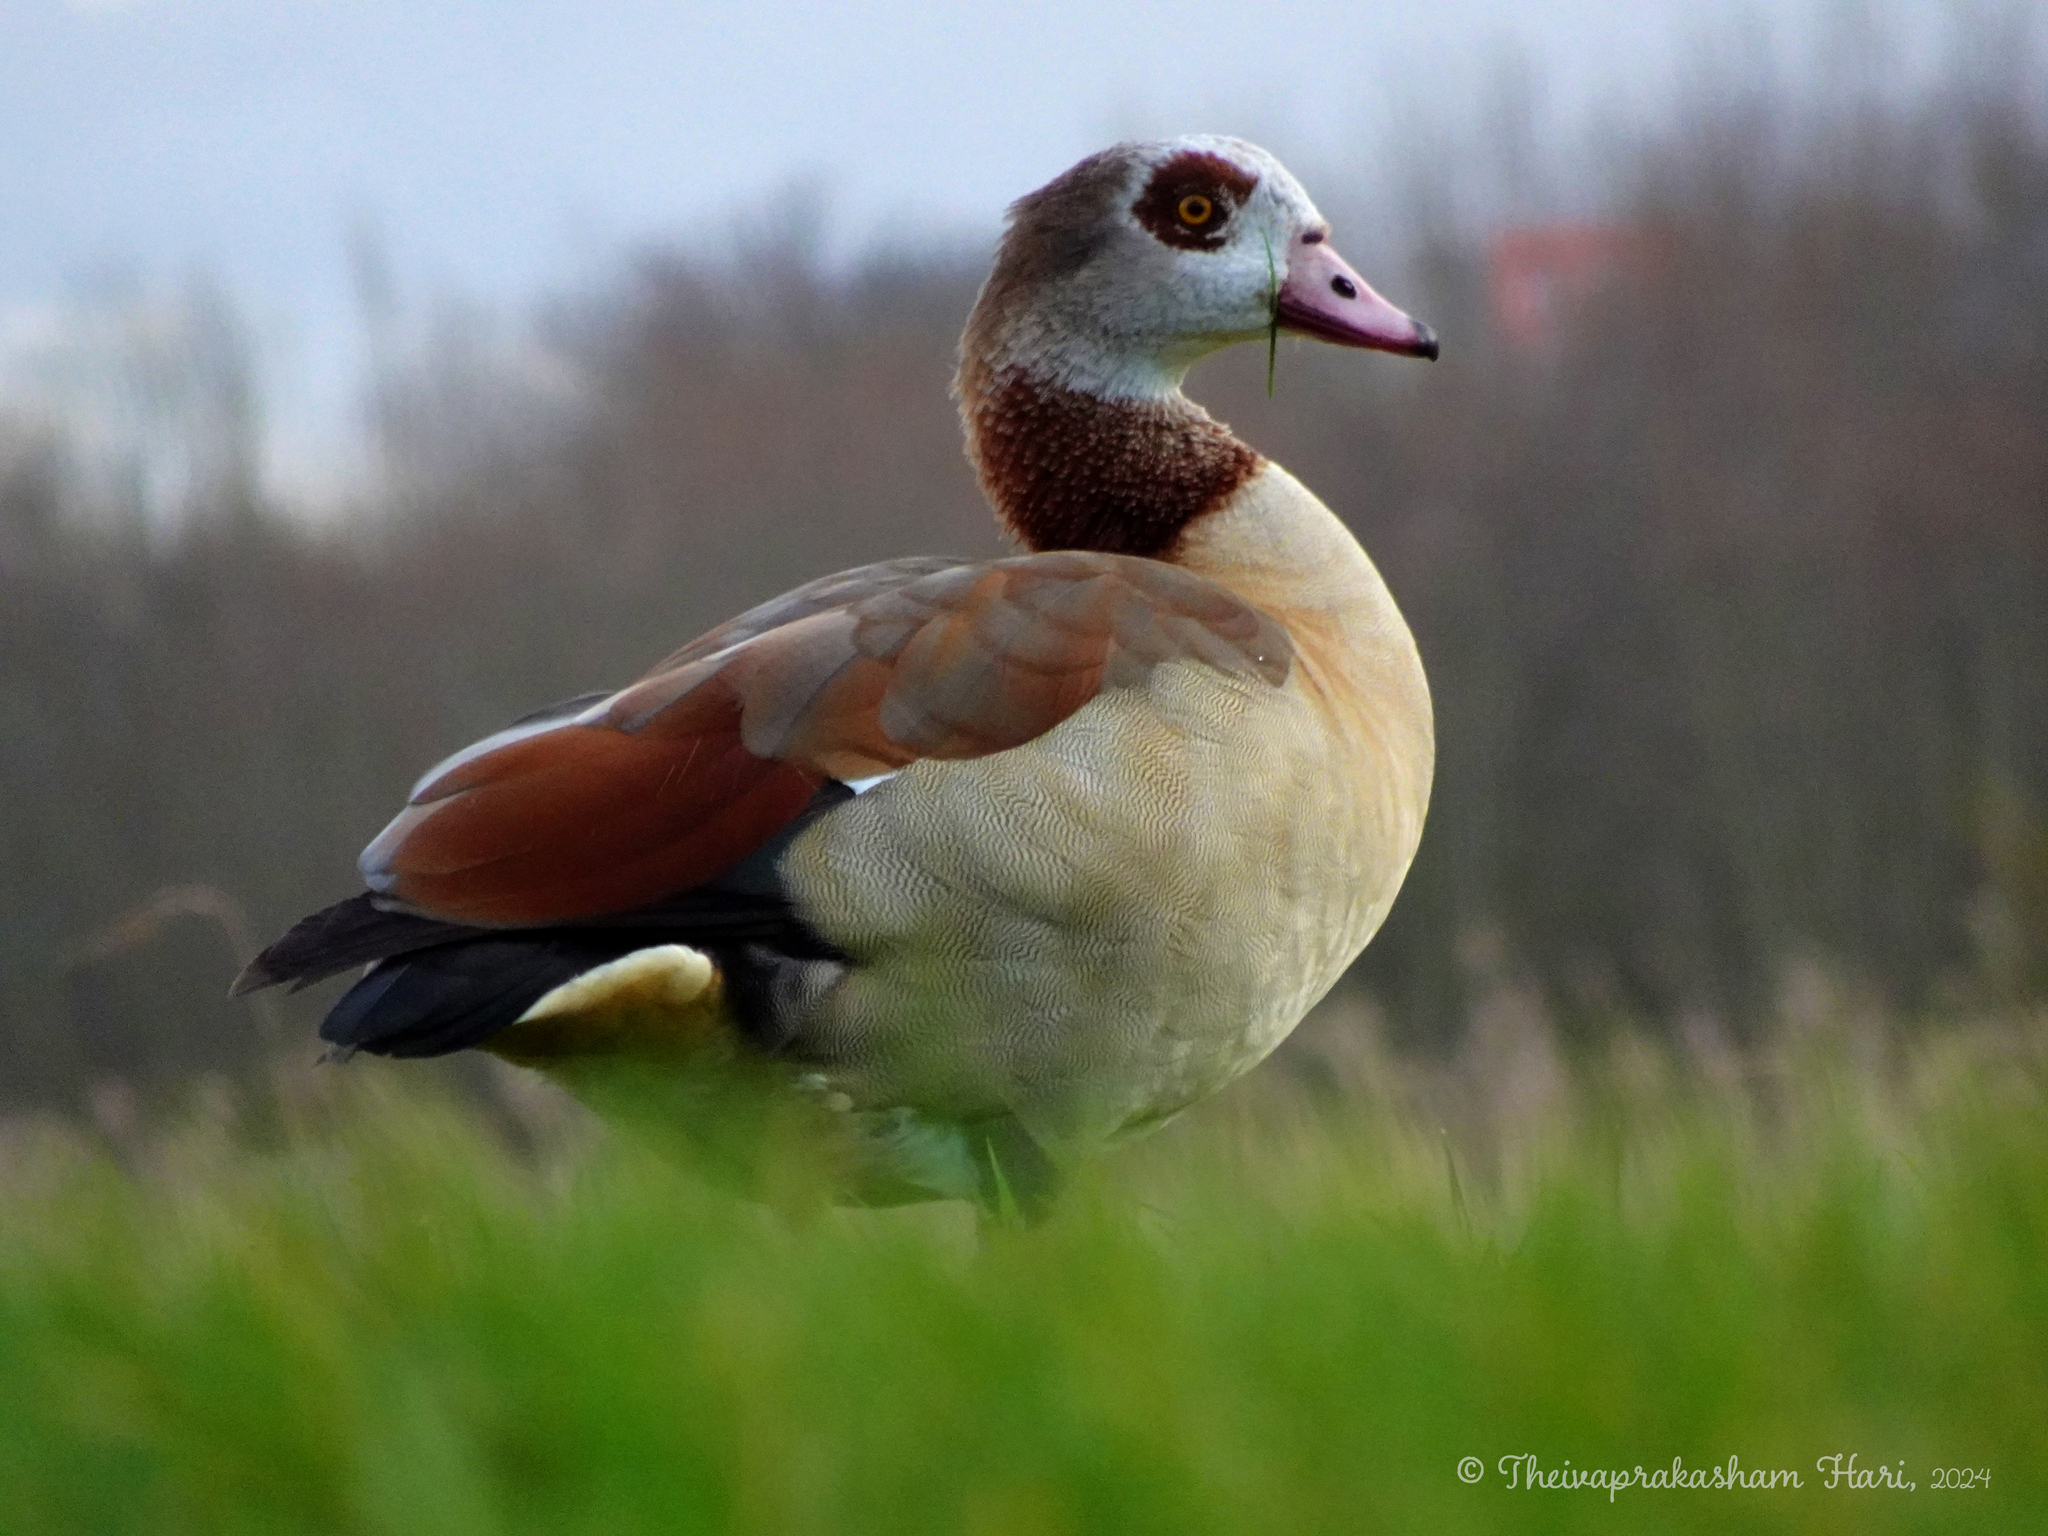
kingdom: Animalia
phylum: Chordata
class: Aves
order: Anseriformes
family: Anatidae
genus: Alopochen
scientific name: Alopochen aegyptiaca
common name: Egyptian goose
